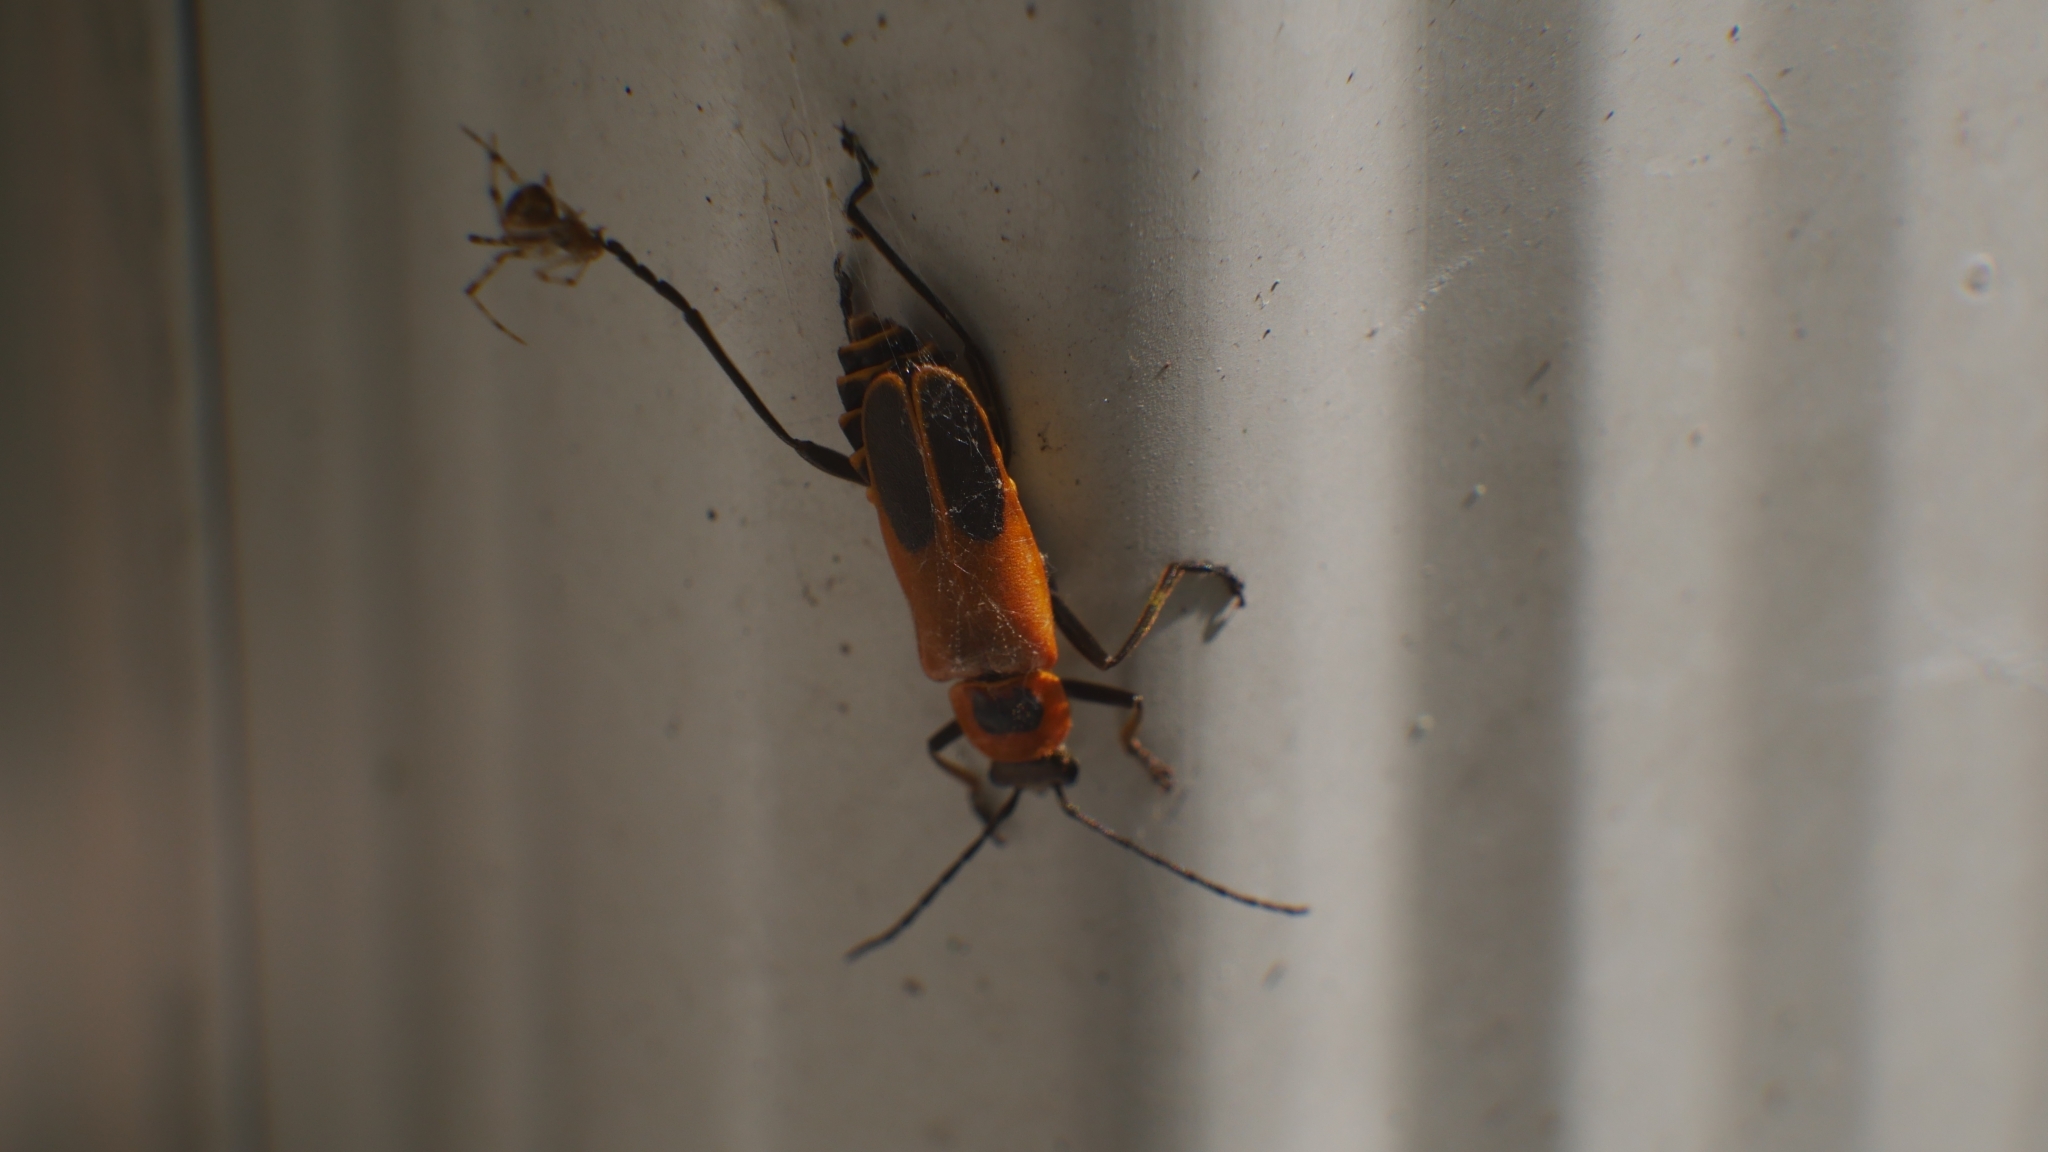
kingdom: Animalia
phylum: Arthropoda
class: Insecta
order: Coleoptera
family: Cantharidae
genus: Chauliognathus
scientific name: Chauliognathus pensylvanicus
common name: Goldenrod soldier beetle
